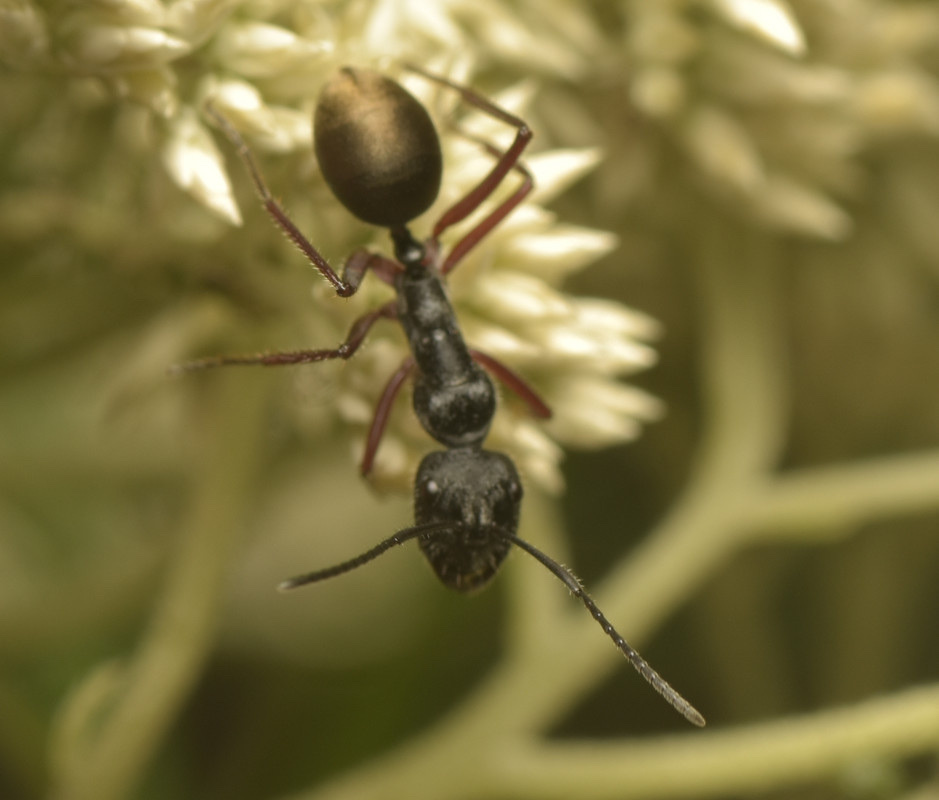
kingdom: Animalia
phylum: Arthropoda
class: Insecta
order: Hymenoptera
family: Formicidae
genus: Camponotus
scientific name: Camponotus suffusus
